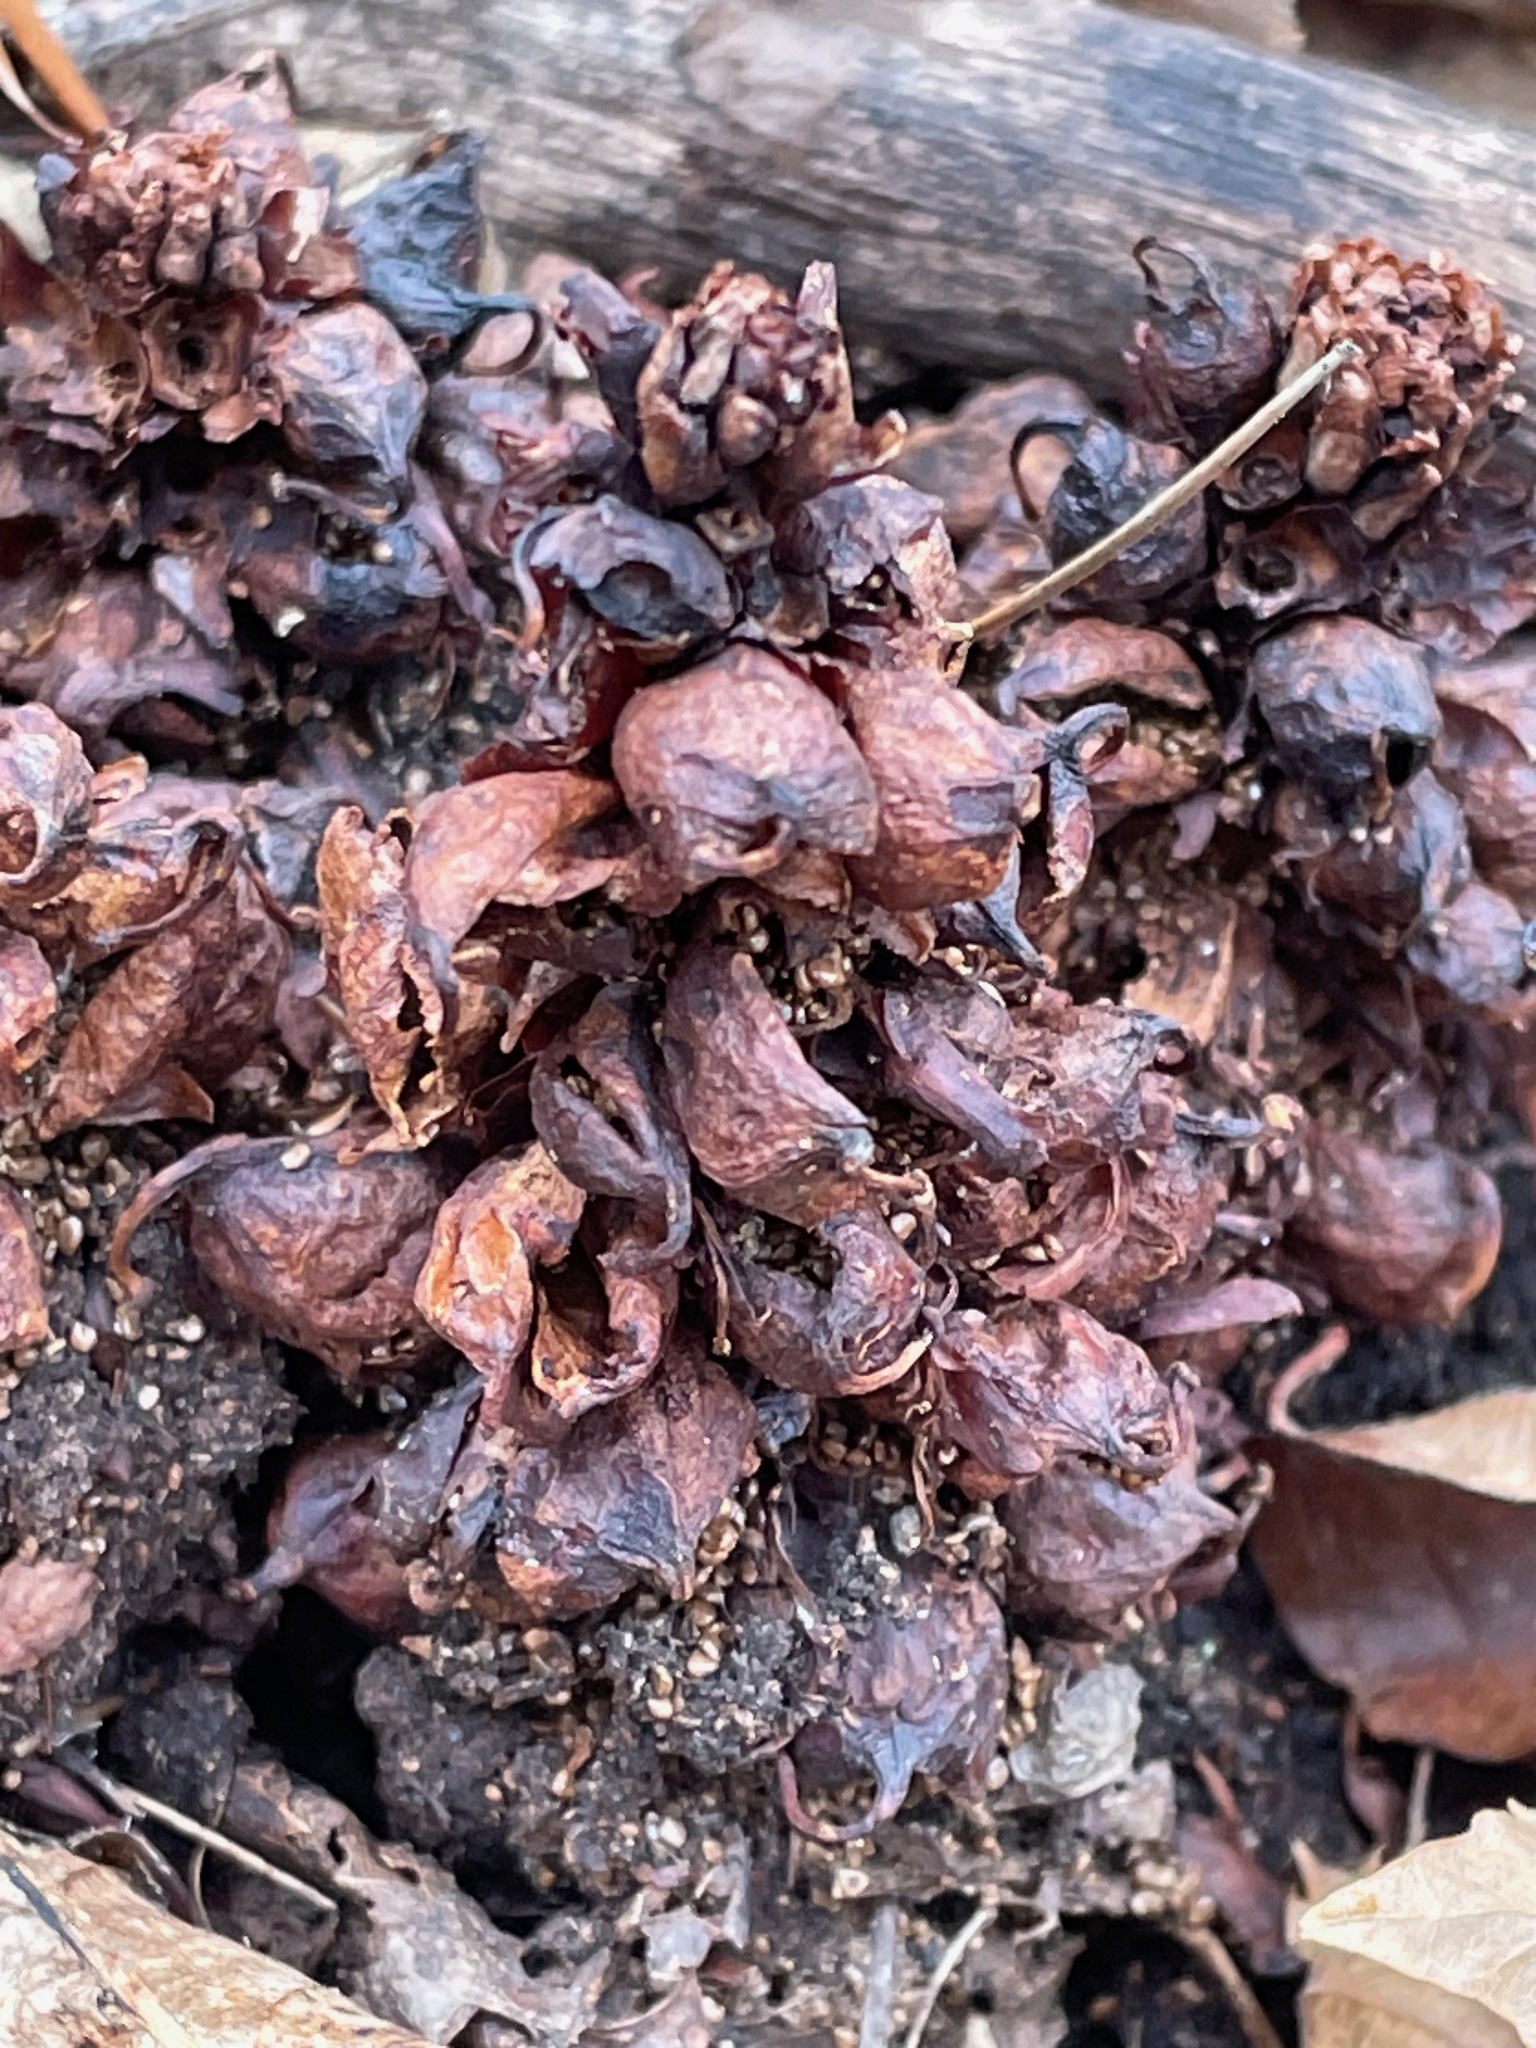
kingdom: Plantae
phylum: Tracheophyta
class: Magnoliopsida
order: Lamiales
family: Orobanchaceae
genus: Conopholis
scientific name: Conopholis americana
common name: American cancer-root
